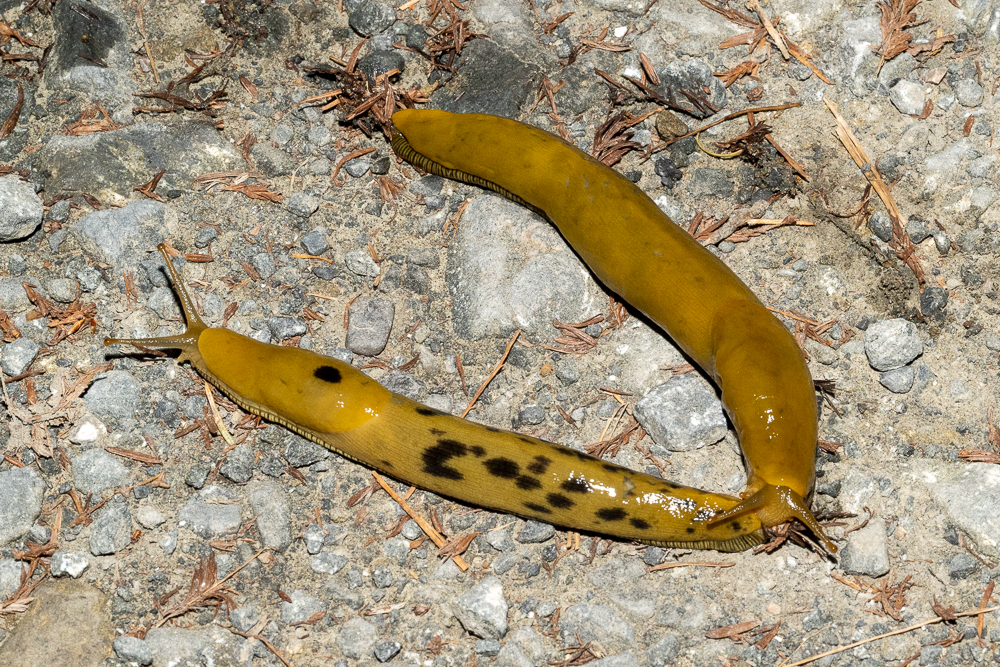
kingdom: Animalia
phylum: Mollusca
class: Gastropoda
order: Stylommatophora
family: Ariolimacidae
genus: Ariolimax
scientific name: Ariolimax buttoni
